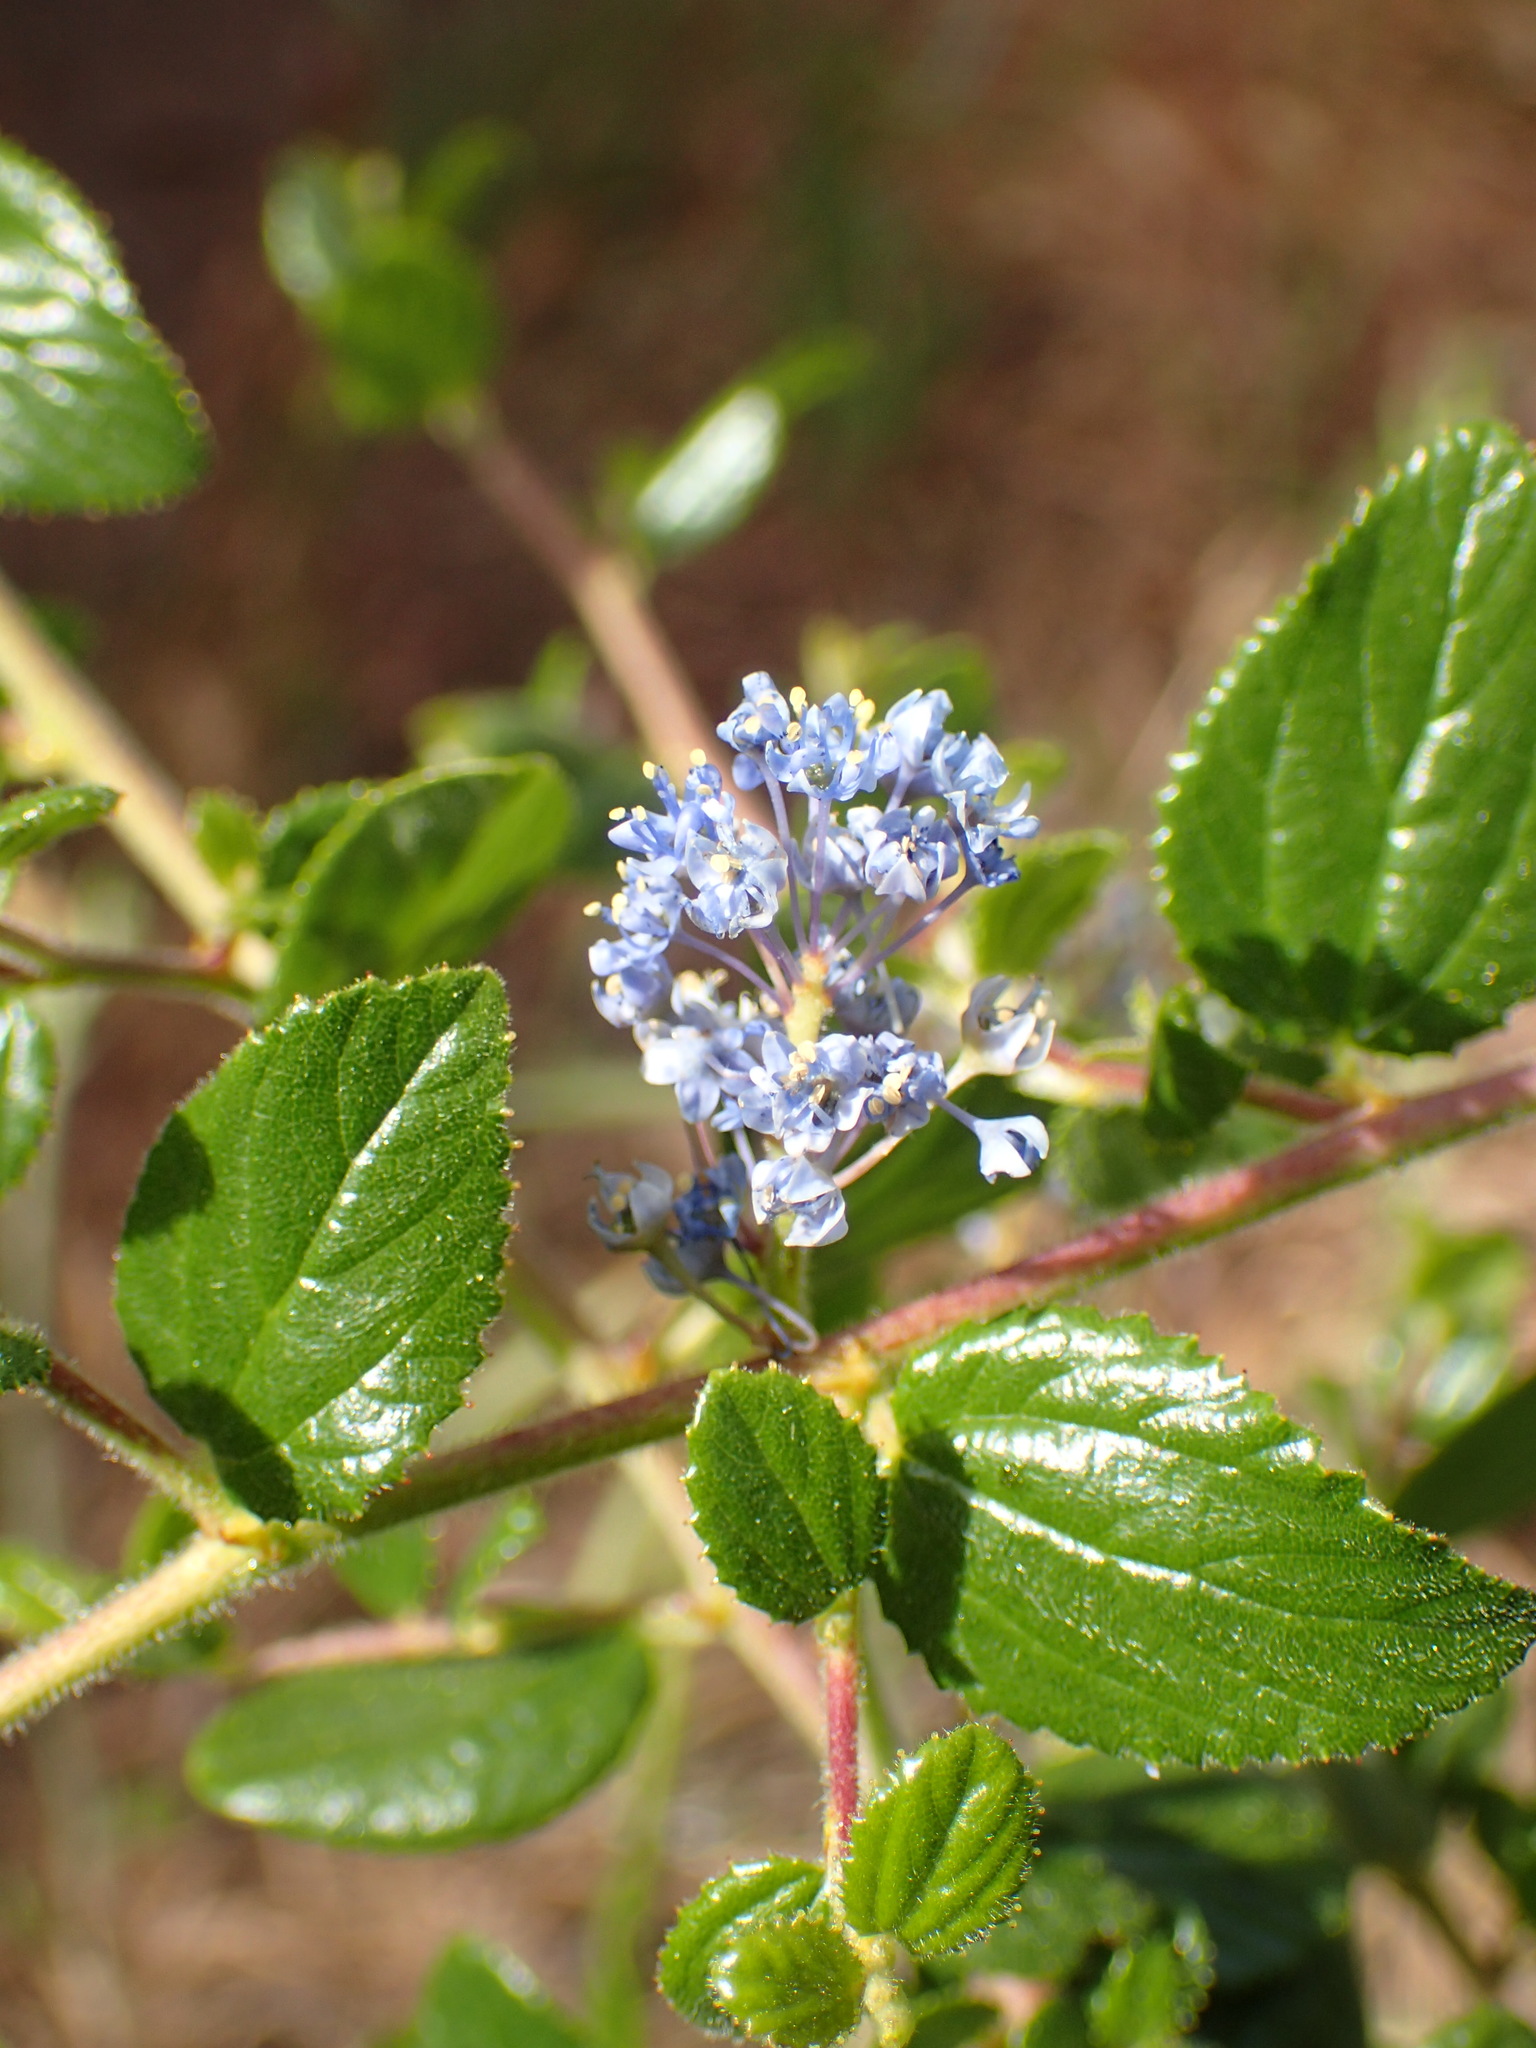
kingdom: Plantae
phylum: Tracheophyta
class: Magnoliopsida
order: Rosales
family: Rhamnaceae
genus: Ceanothus
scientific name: Ceanothus oliganthus
